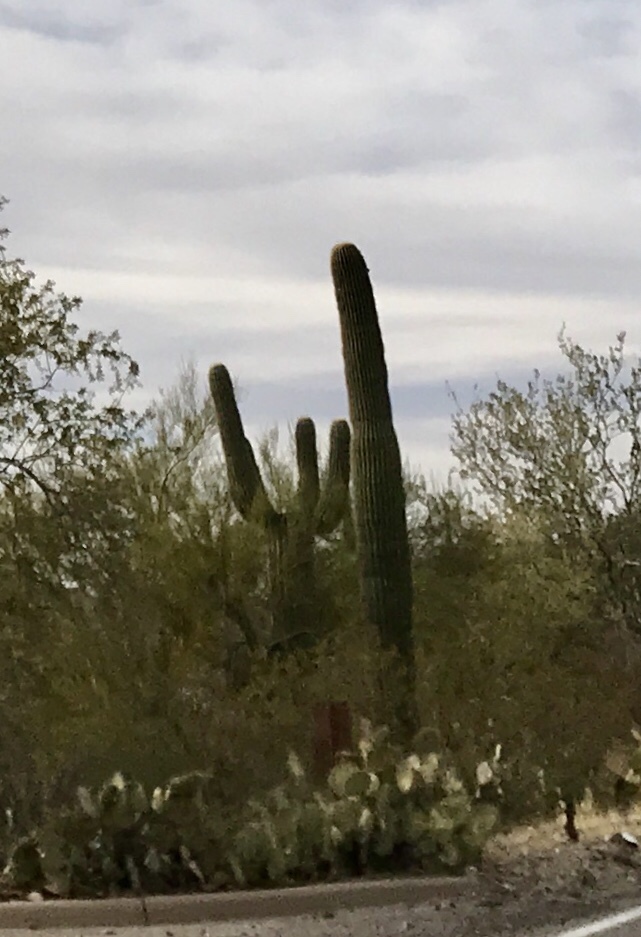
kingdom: Plantae
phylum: Tracheophyta
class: Magnoliopsida
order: Caryophyllales
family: Cactaceae
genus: Carnegiea
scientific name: Carnegiea gigantea
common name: Saguaro
